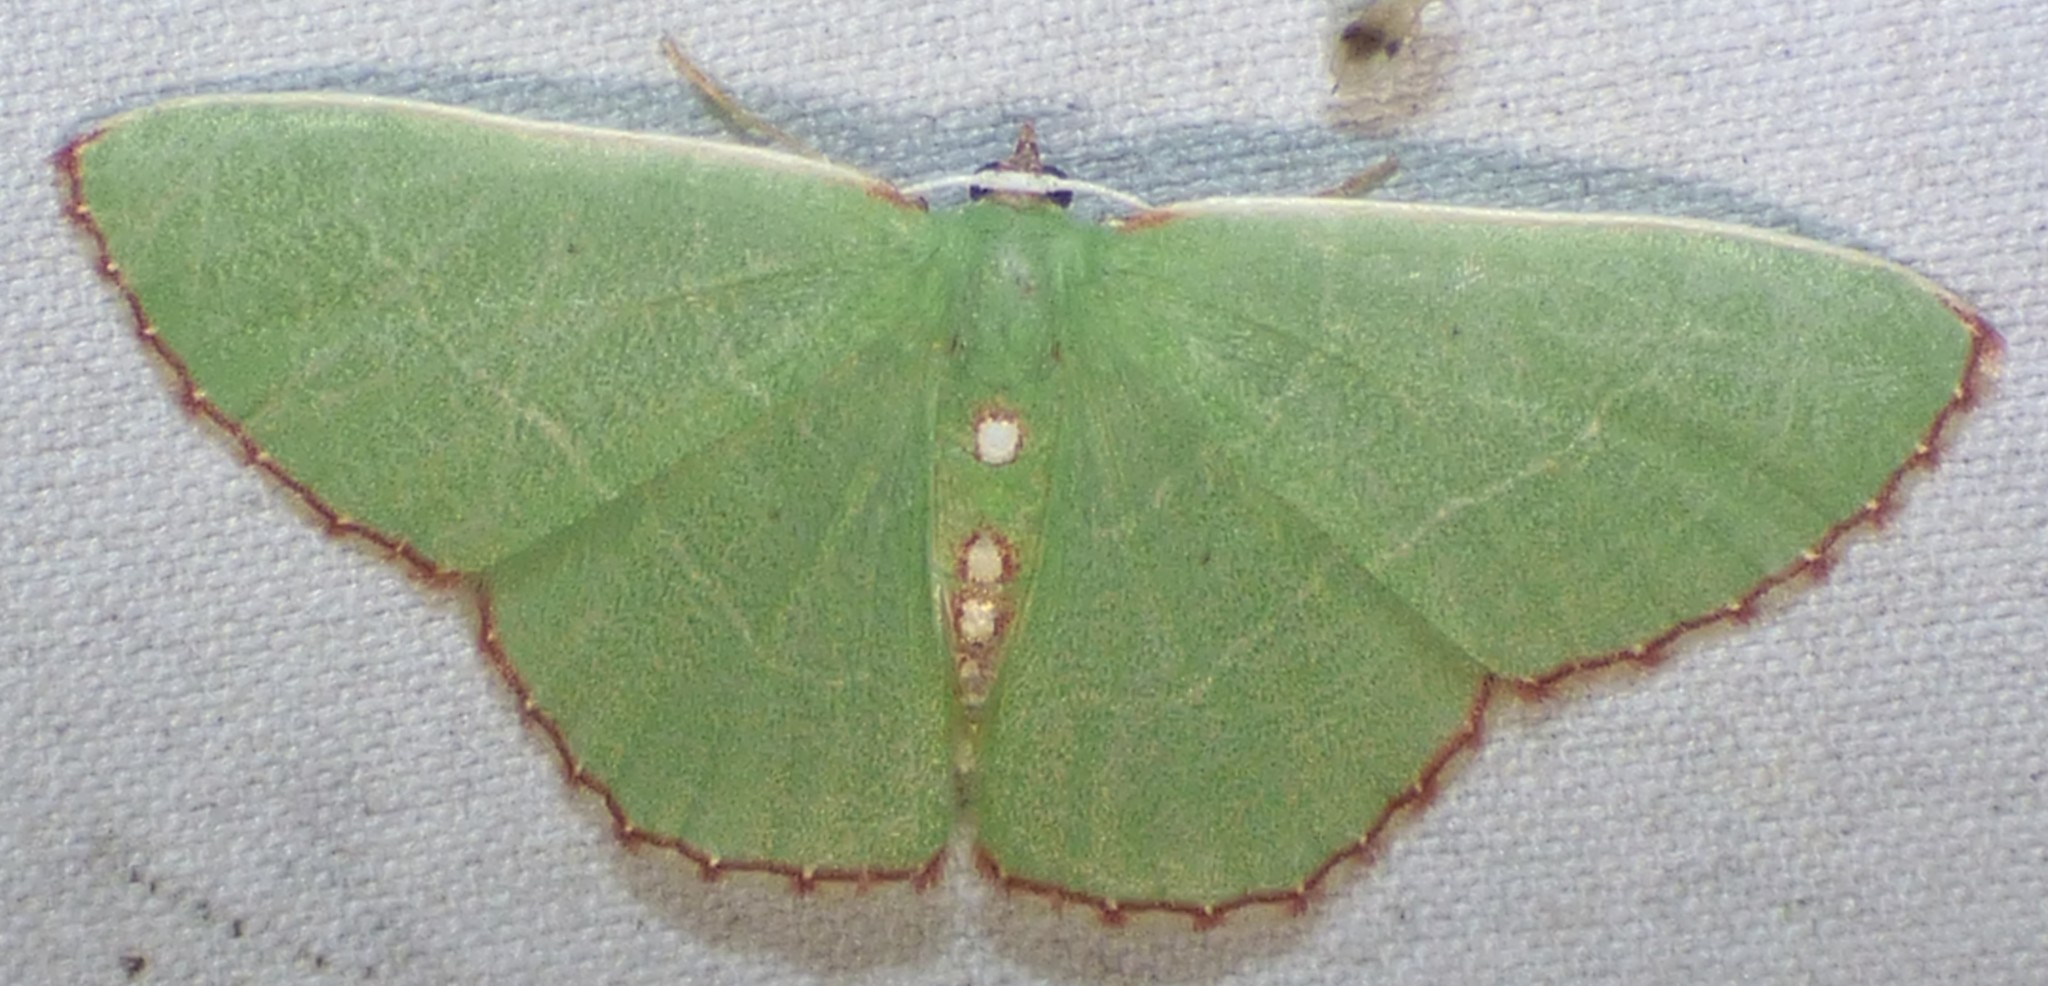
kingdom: Animalia
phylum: Arthropoda
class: Insecta
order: Lepidoptera
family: Geometridae
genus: Nemoria
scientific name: Nemoria lixaria
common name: Red-bordered emerald
